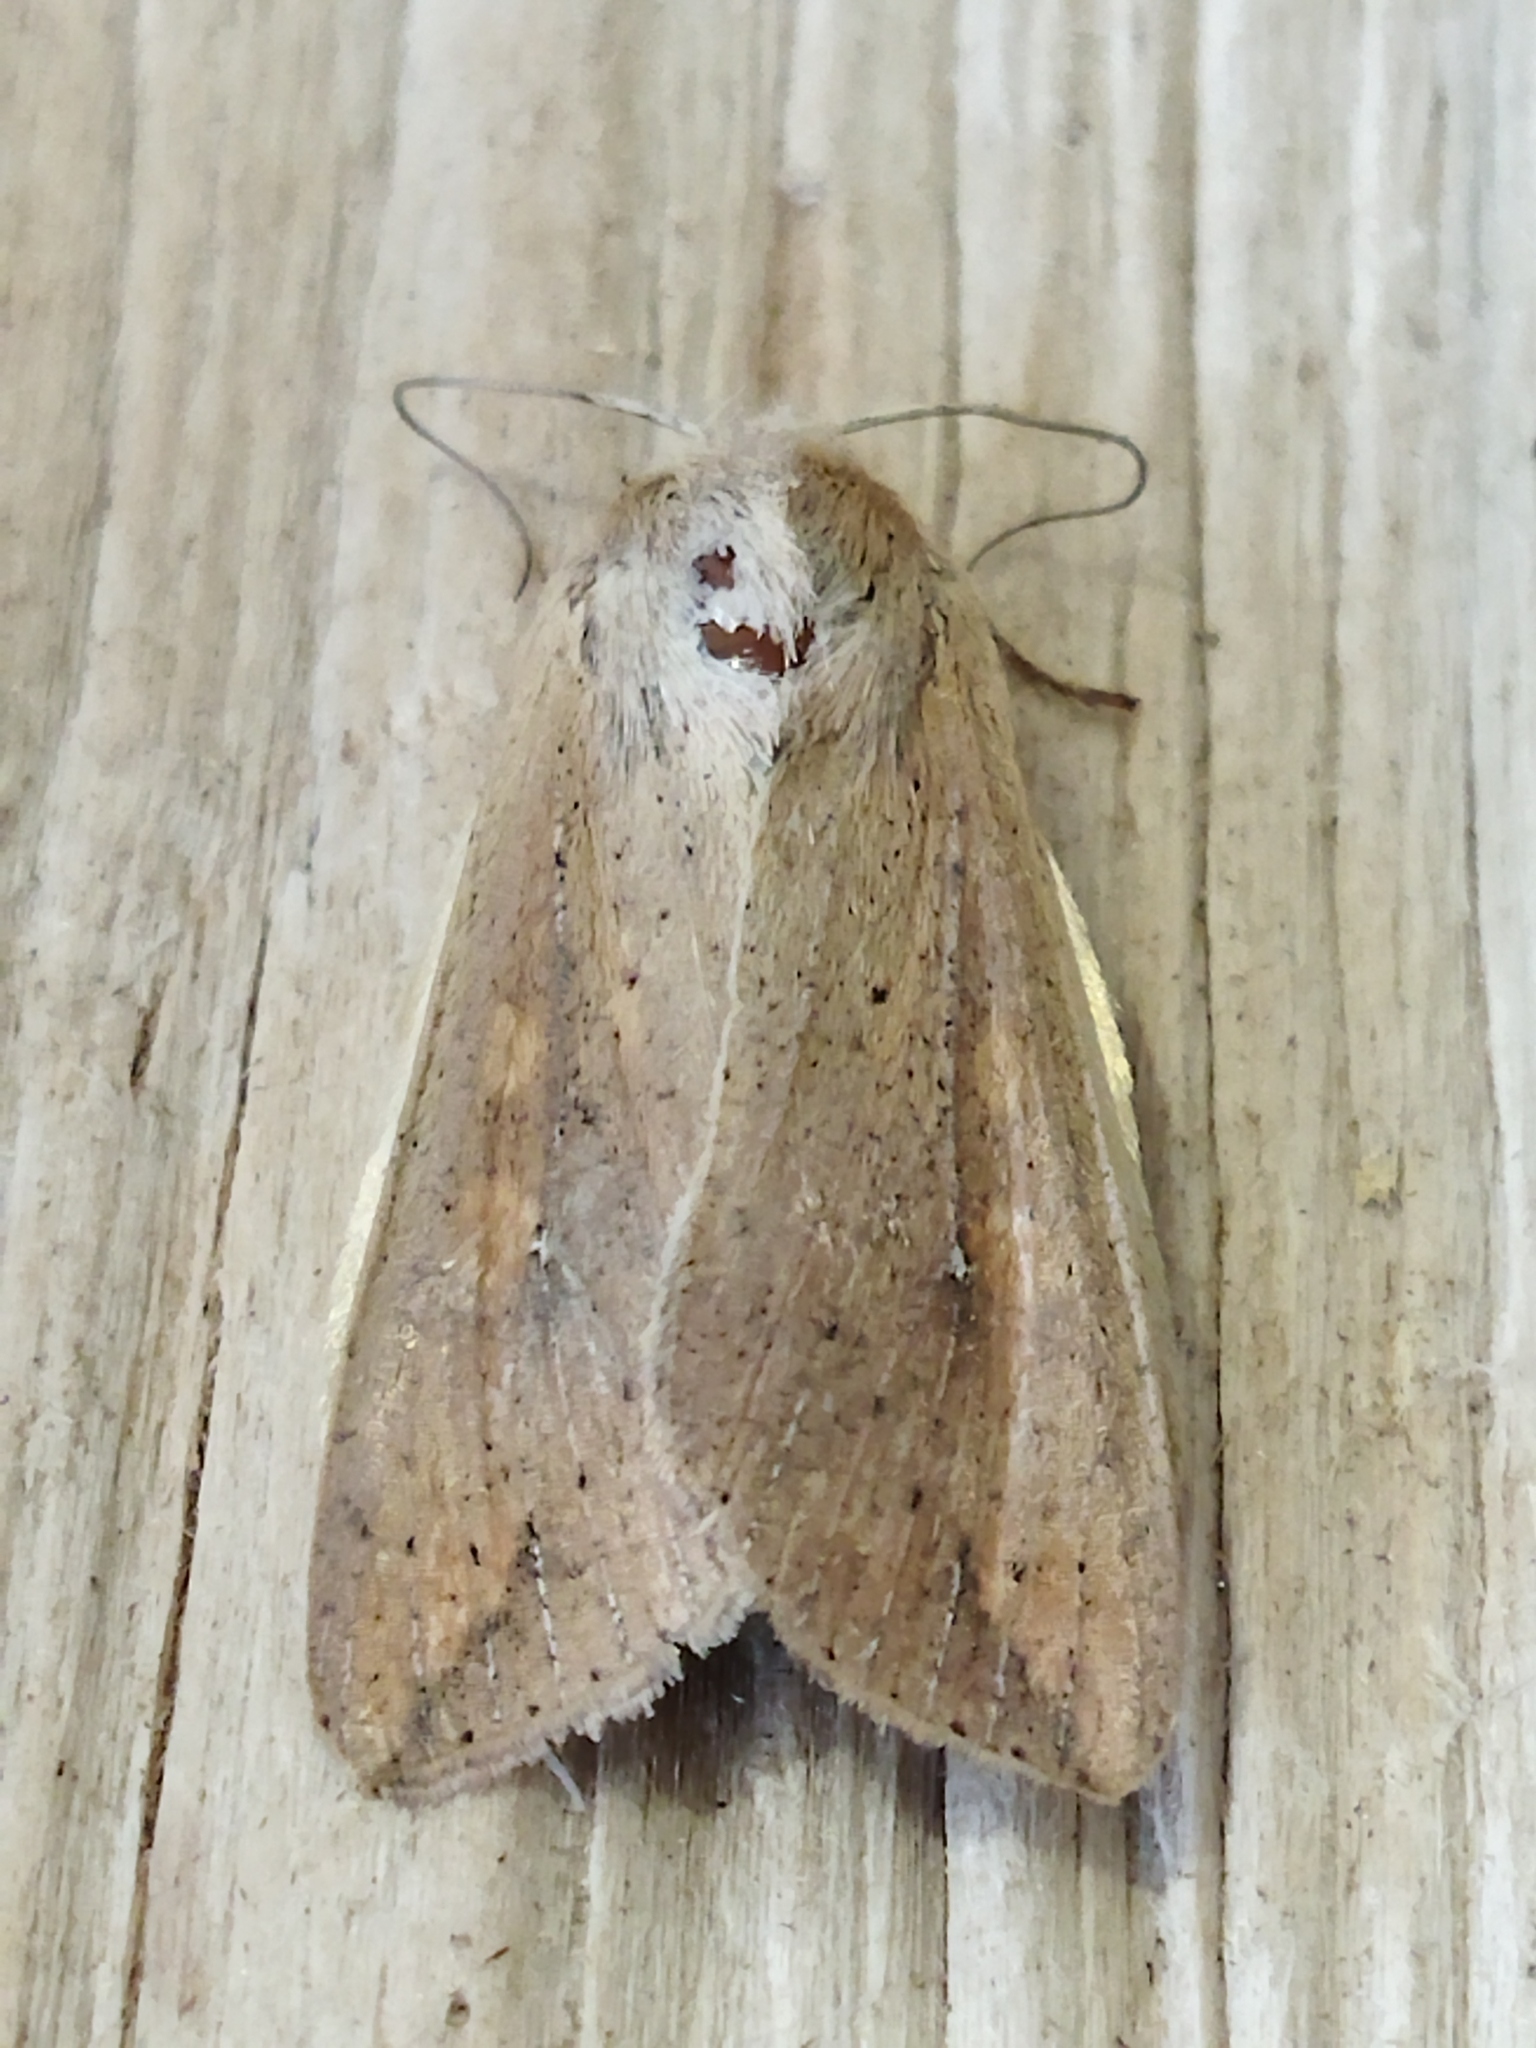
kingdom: Animalia
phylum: Arthropoda
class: Insecta
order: Lepidoptera
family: Noctuidae
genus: Mythimna
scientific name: Mythimna unipuncta
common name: White-speck
